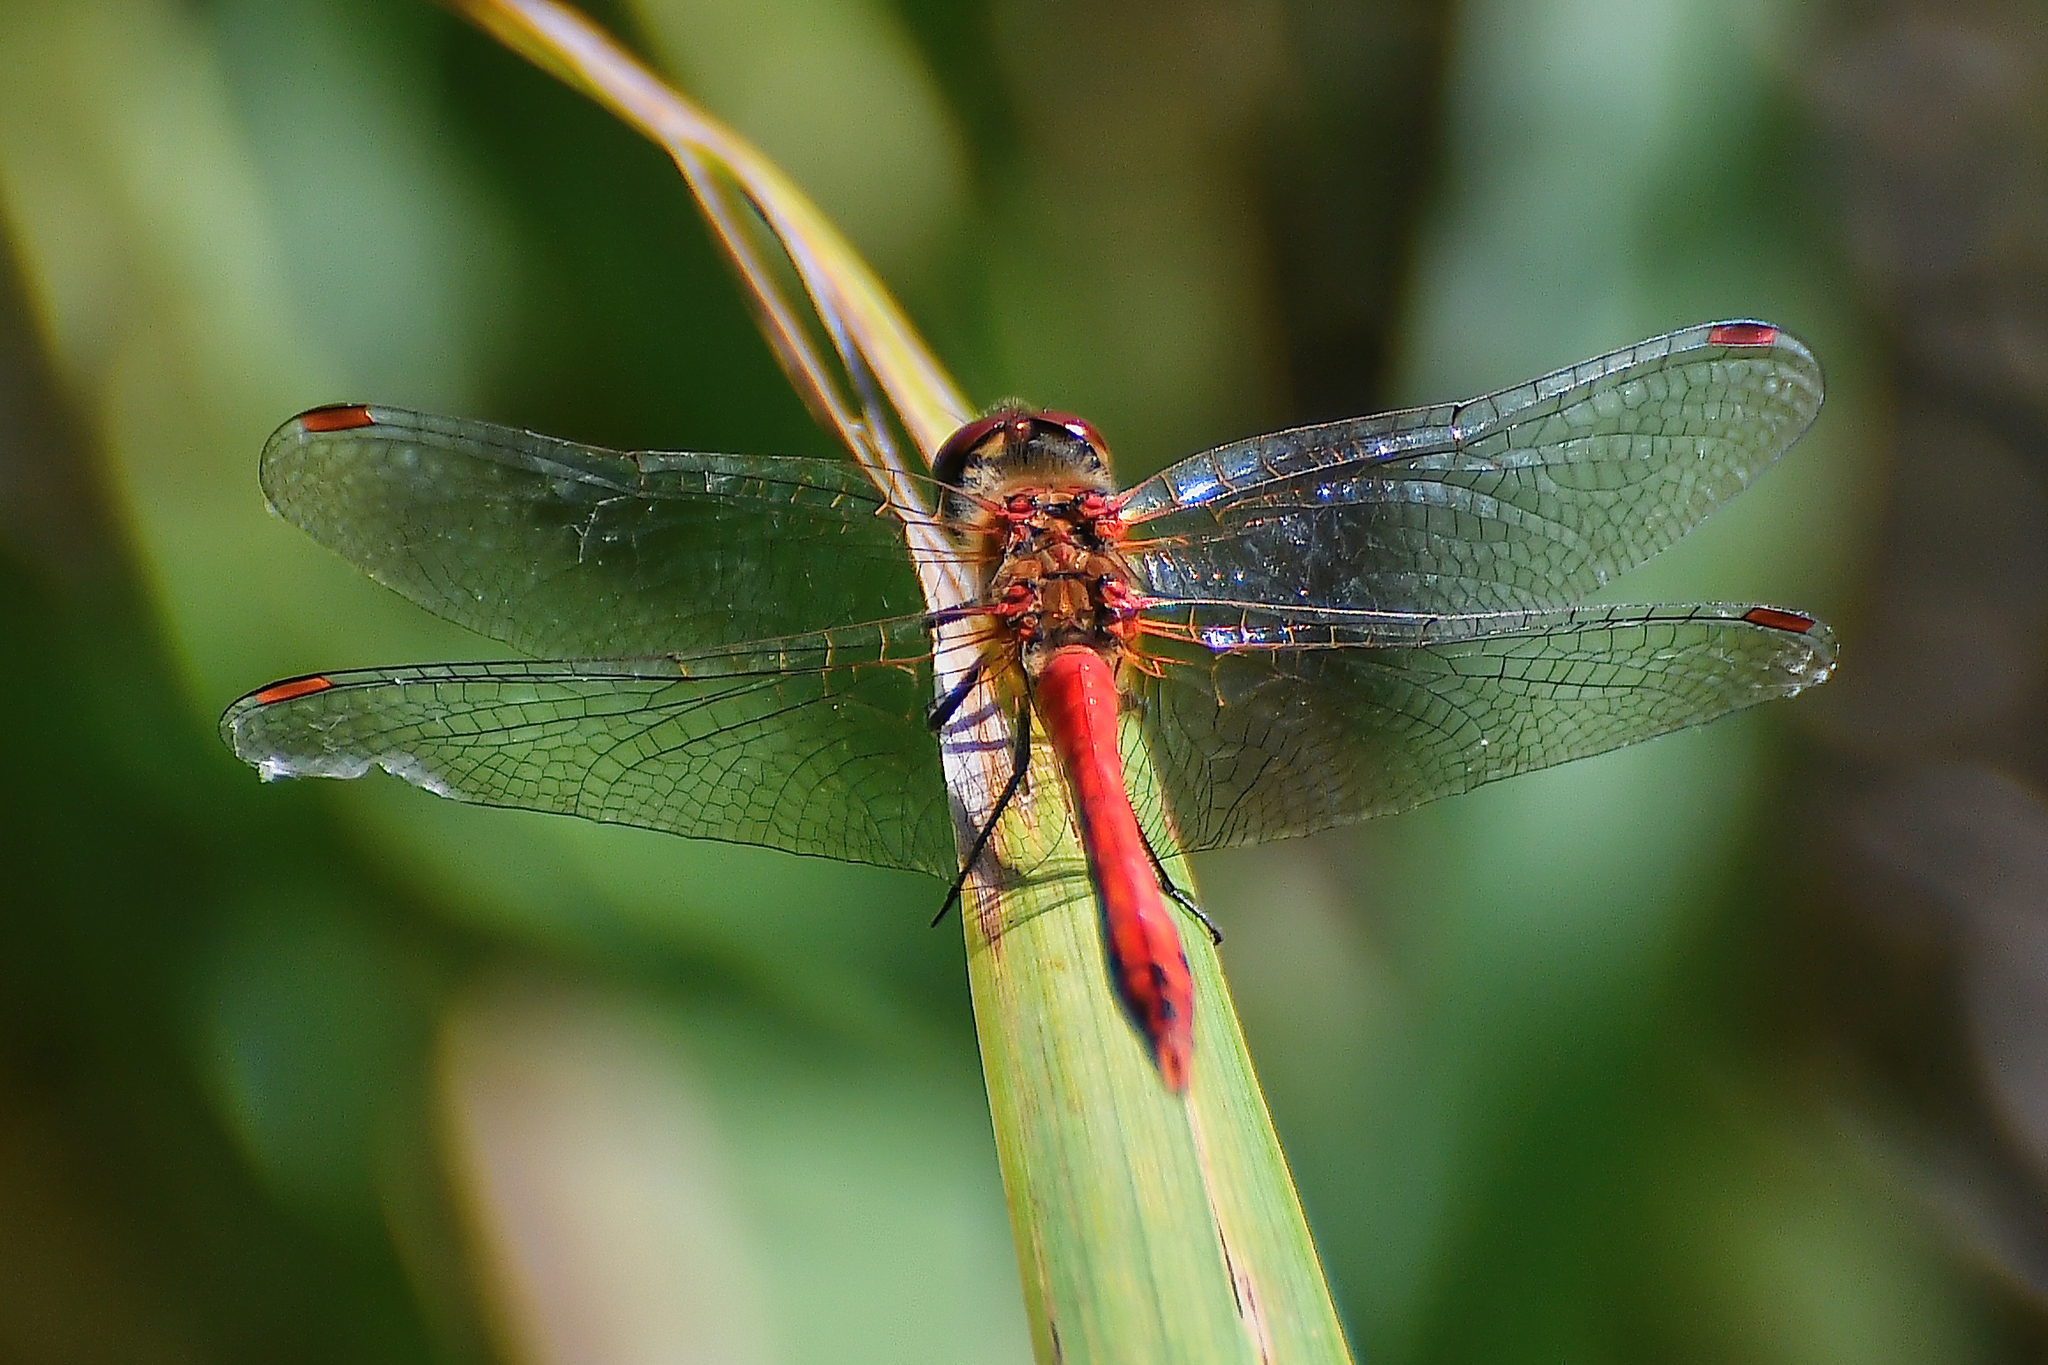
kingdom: Animalia
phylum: Arthropoda
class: Insecta
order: Odonata
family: Libellulidae
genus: Sympetrum
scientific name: Sympetrum sanguineum
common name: Ruddy darter
